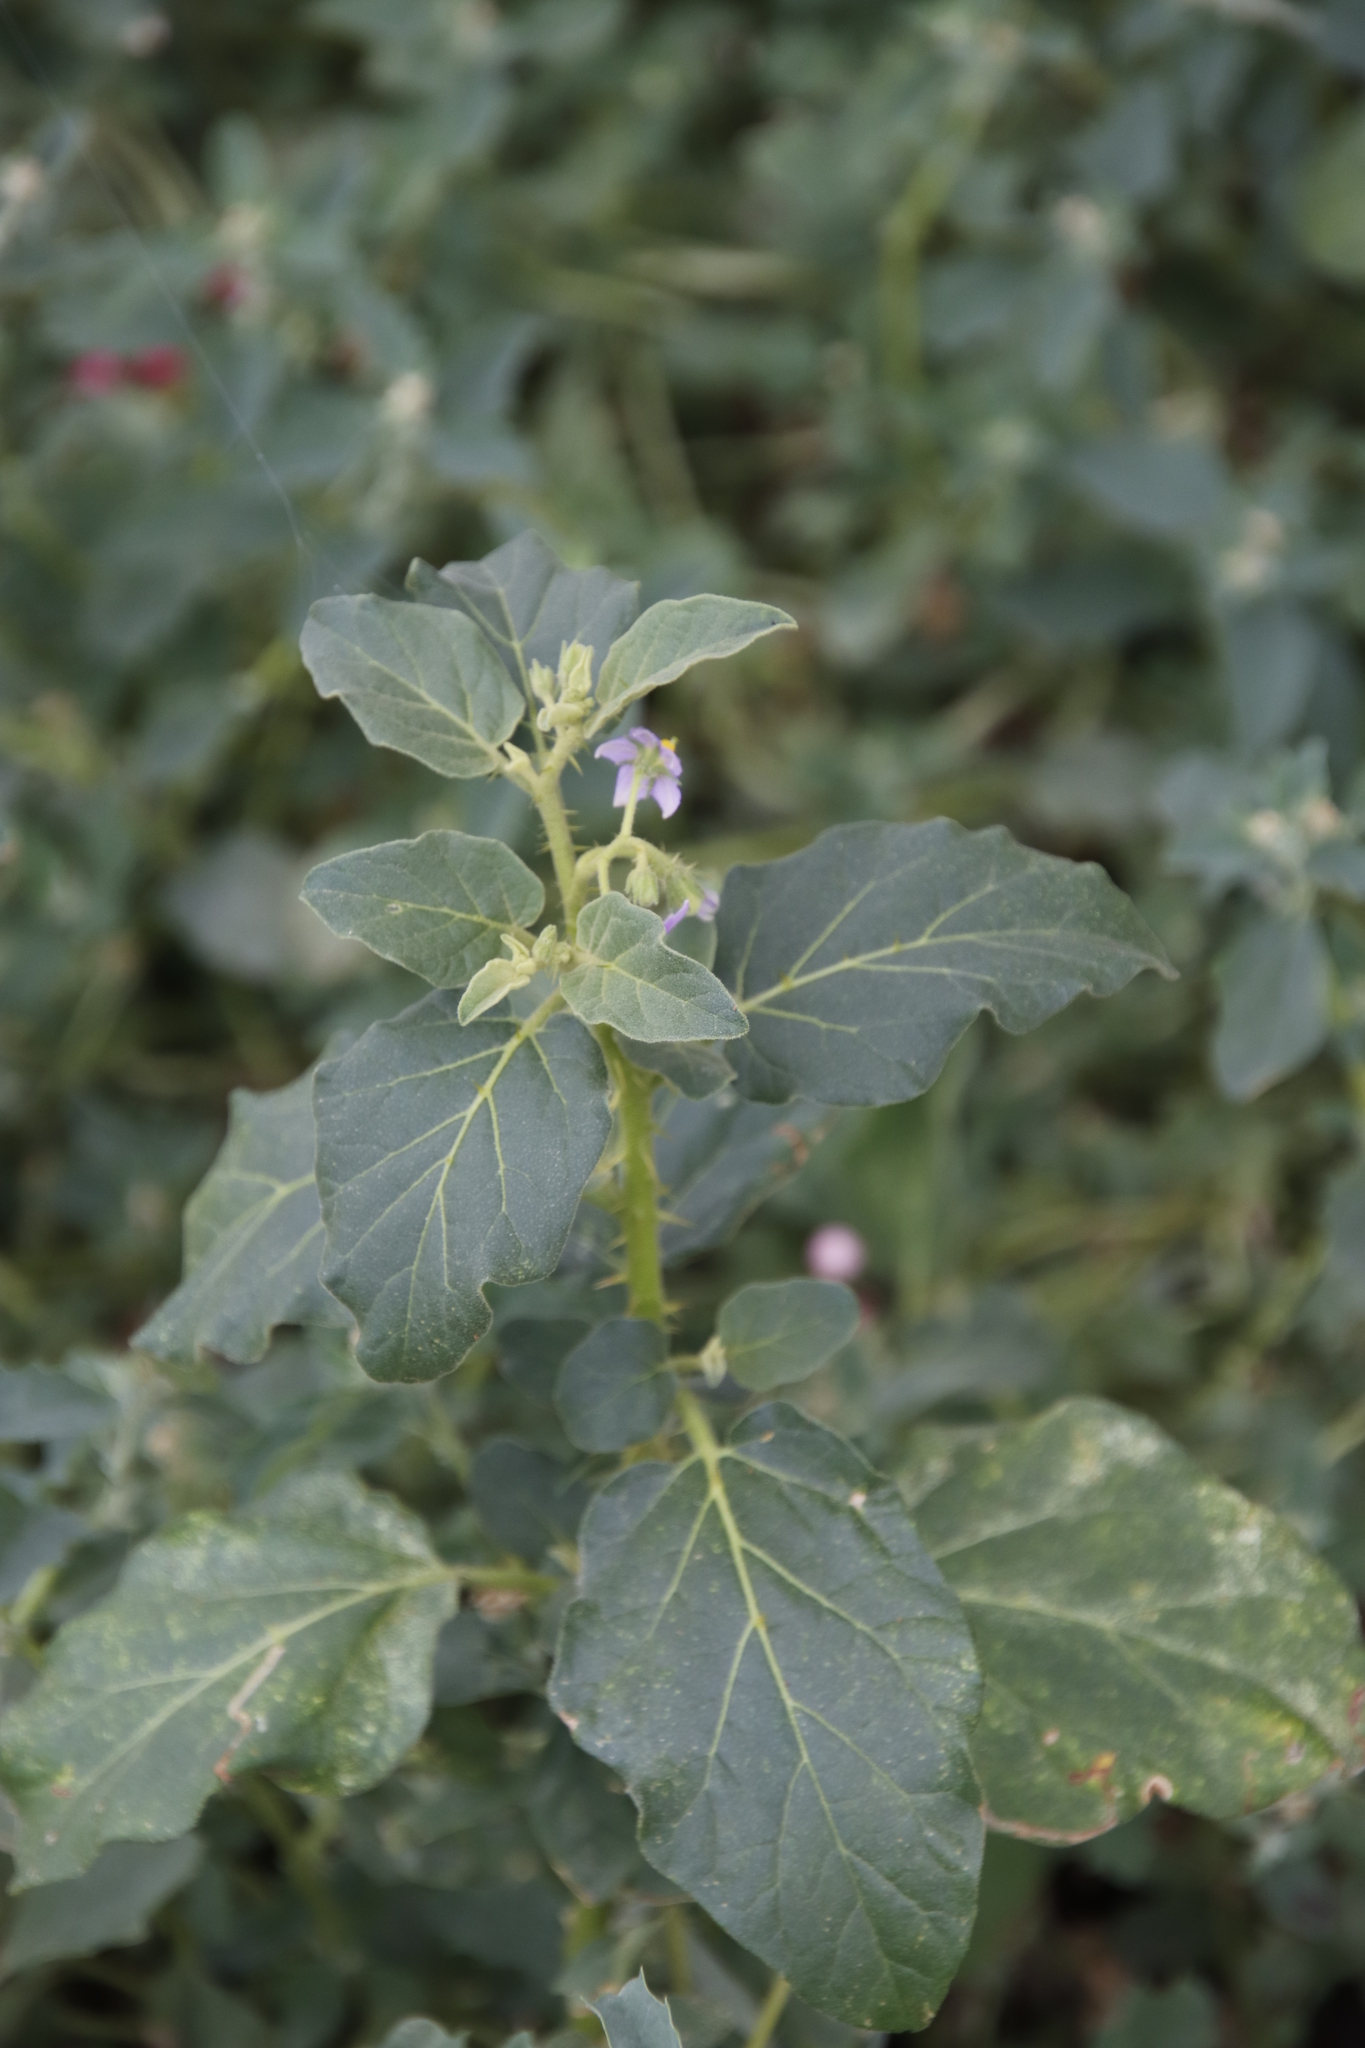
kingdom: Plantae
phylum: Tracheophyta
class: Magnoliopsida
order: Solanales
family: Solanaceae
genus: Solanum
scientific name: Solanum tomentosum
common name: Wild aubergine
